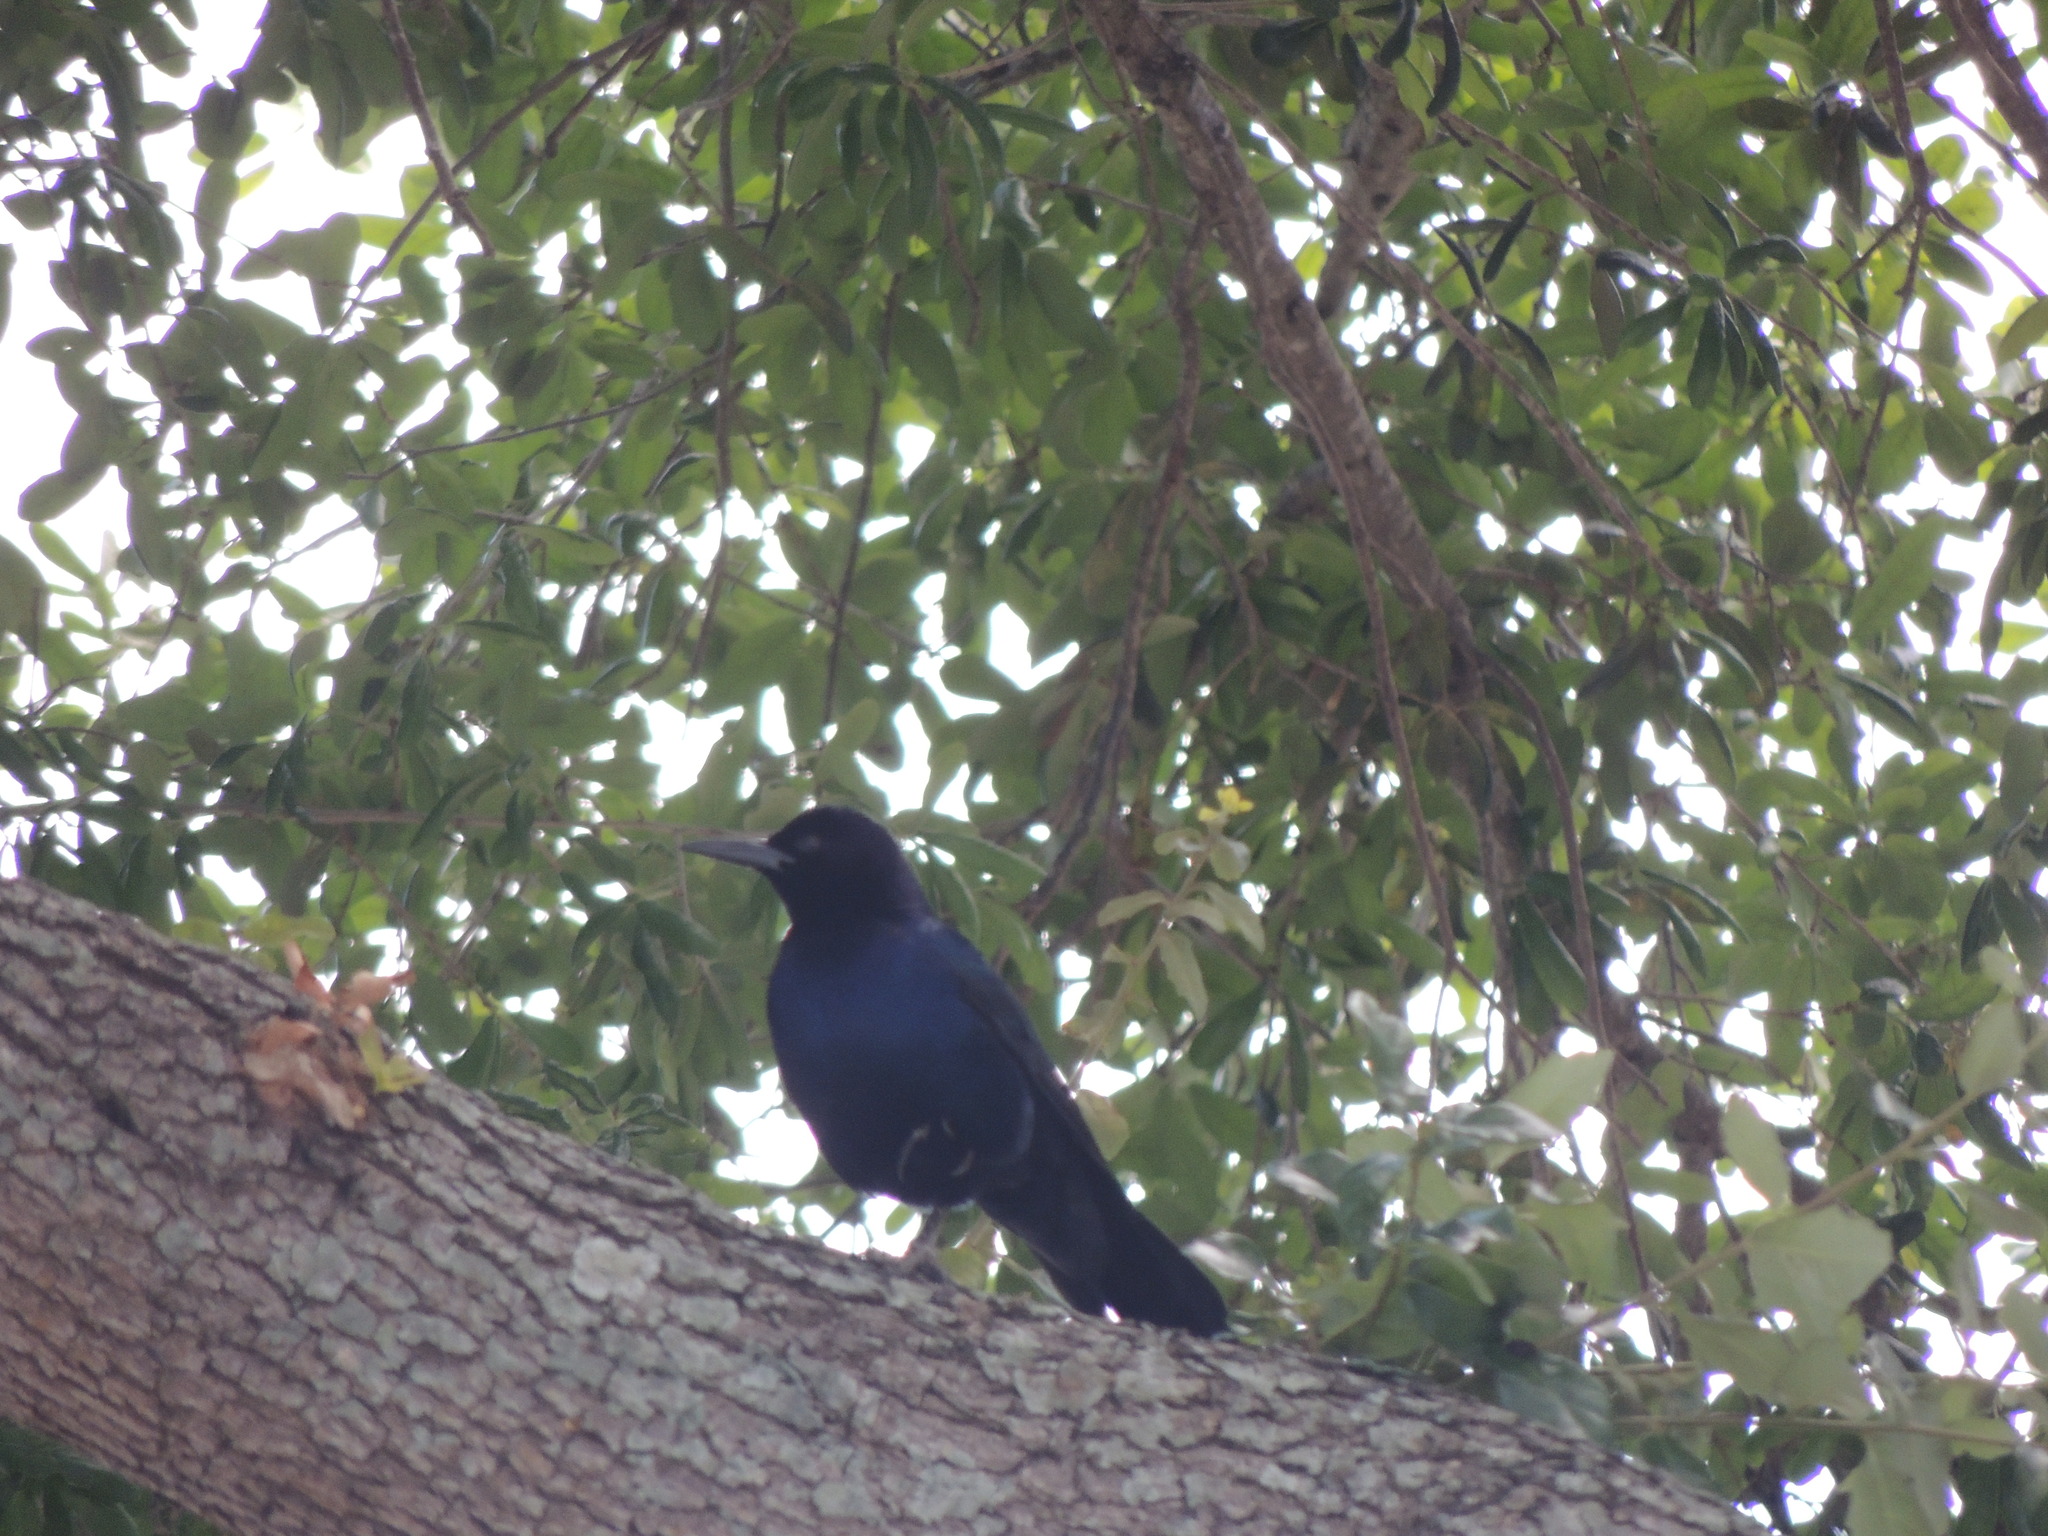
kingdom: Animalia
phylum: Chordata
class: Aves
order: Passeriformes
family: Icteridae
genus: Quiscalus
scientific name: Quiscalus major
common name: Boat-tailed grackle
